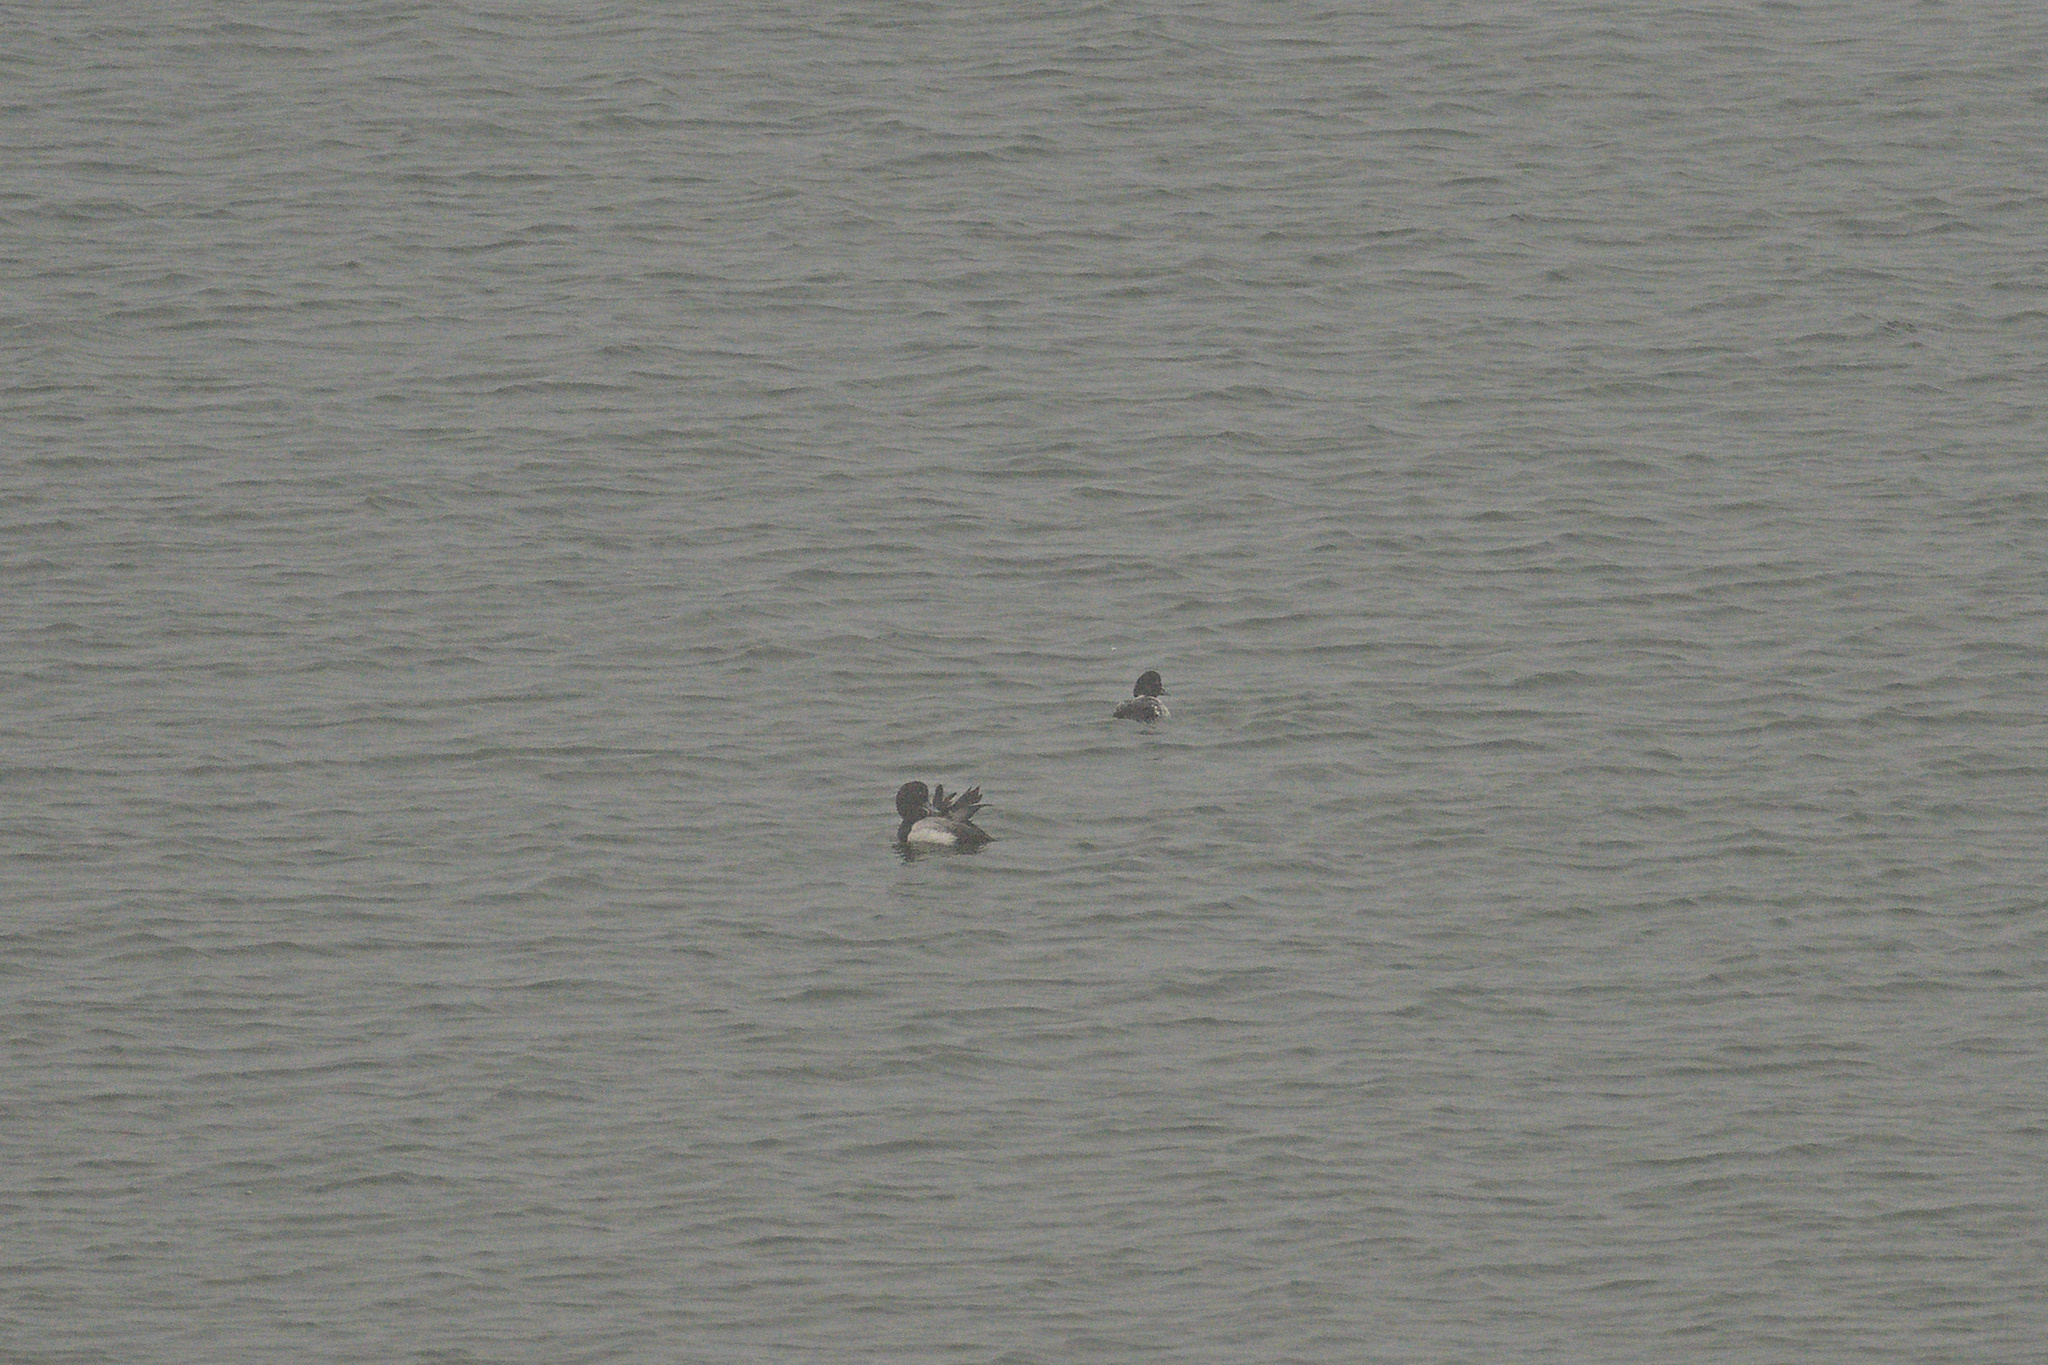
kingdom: Animalia
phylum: Chordata
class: Aves
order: Anseriformes
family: Anatidae
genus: Aythya
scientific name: Aythya marila
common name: Greater scaup
